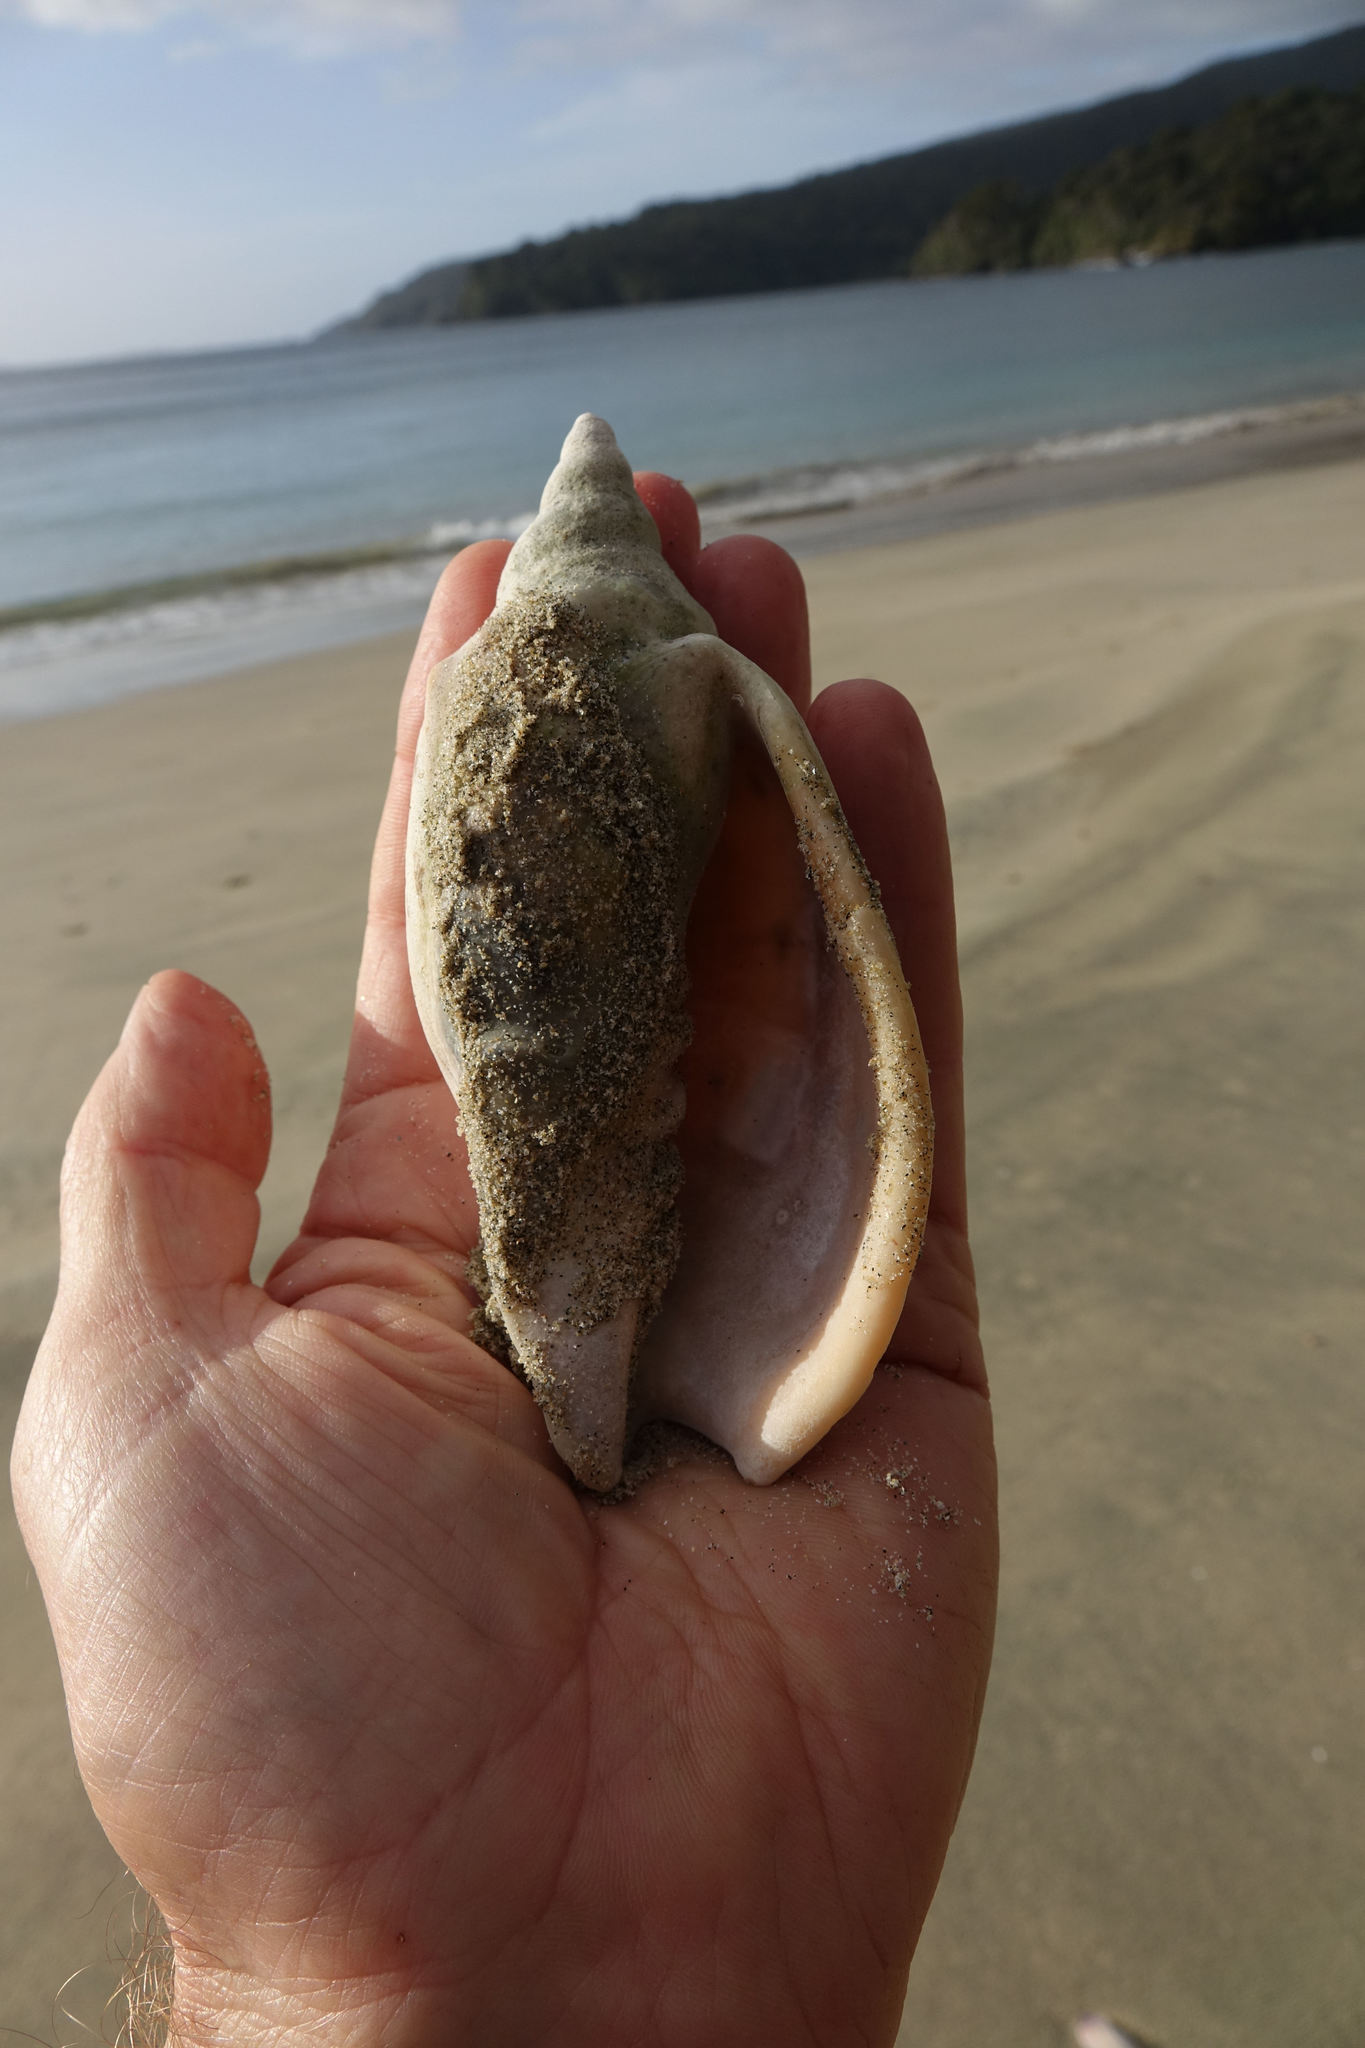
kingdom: Animalia
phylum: Mollusca
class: Gastropoda
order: Neogastropoda
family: Volutidae
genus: Alcithoe
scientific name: Alcithoe arabica
